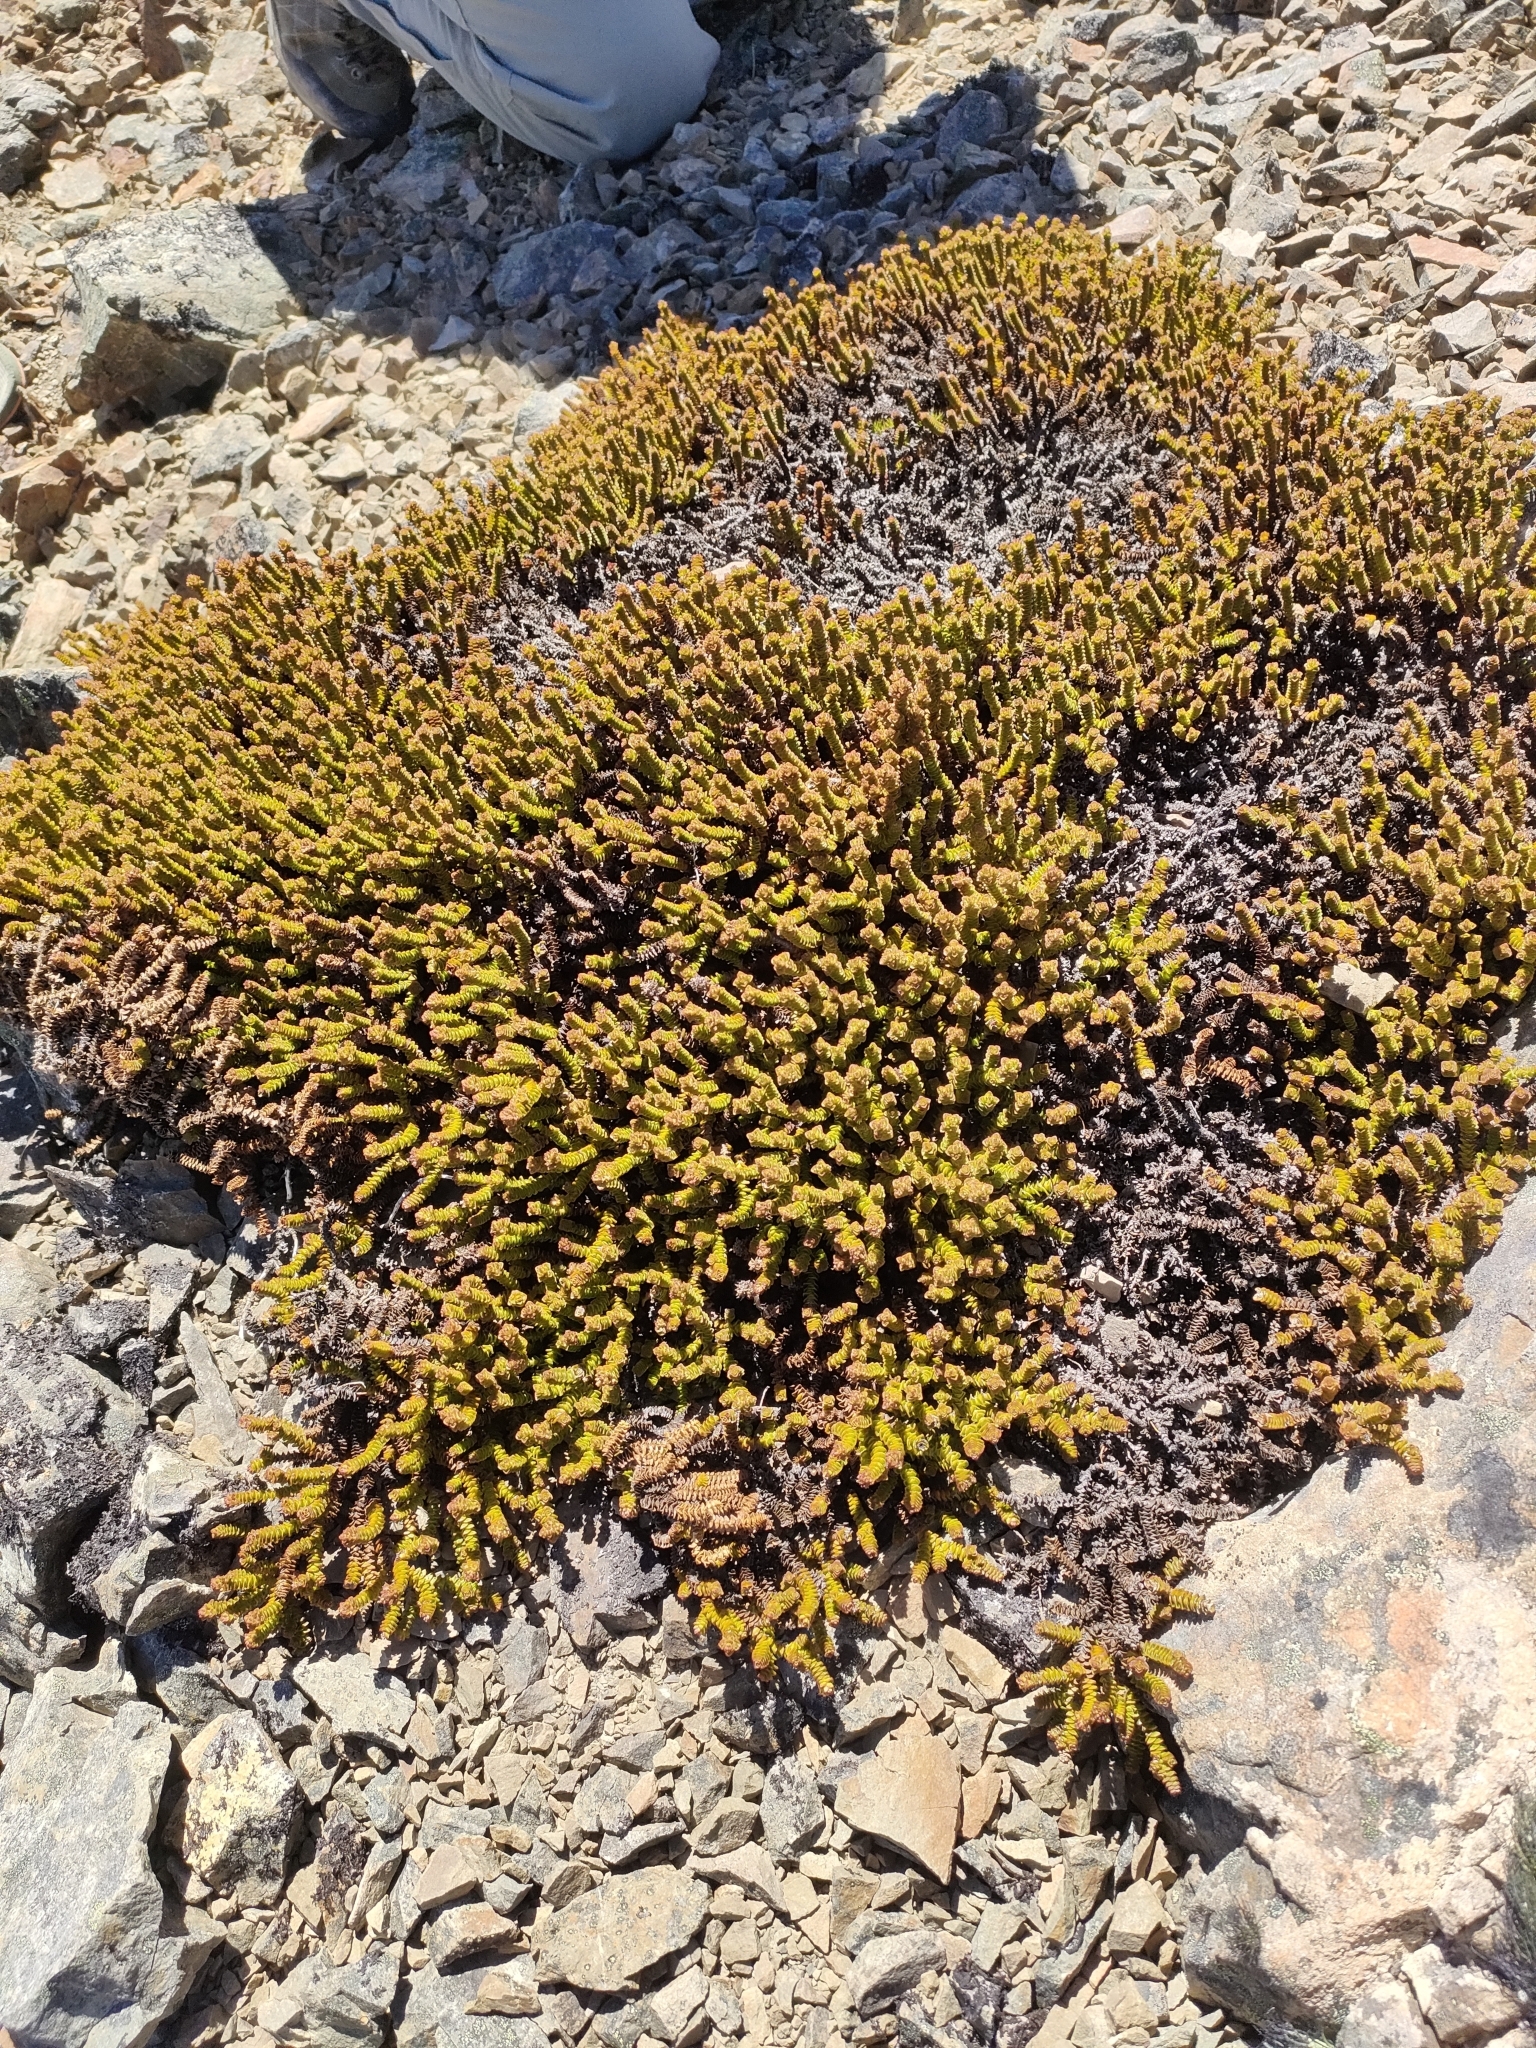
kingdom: Plantae
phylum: Tracheophyta
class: Magnoliopsida
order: Lamiales
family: Plantaginaceae
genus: Veronica
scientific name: Veronica epacridea
